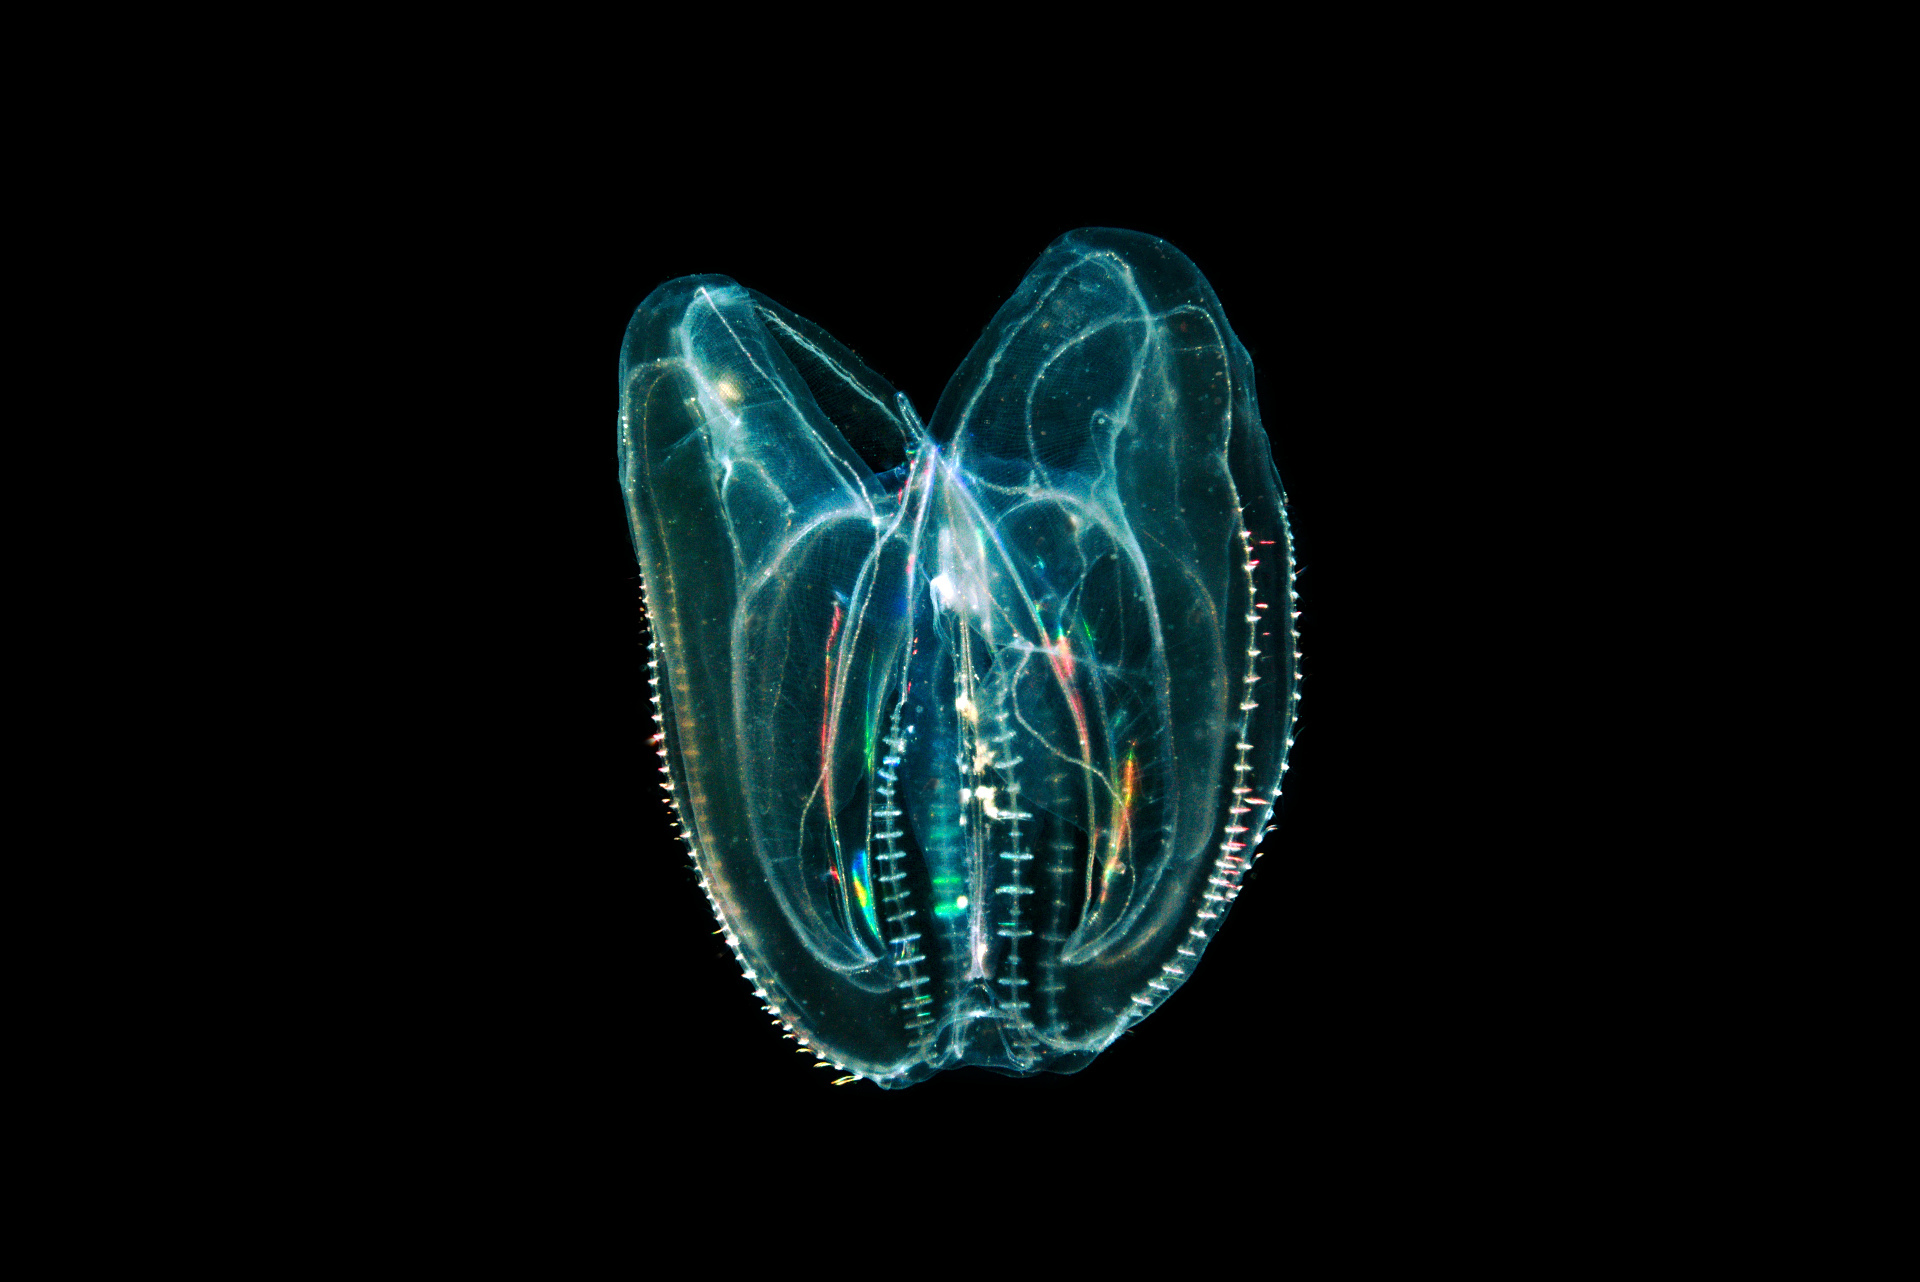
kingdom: Animalia
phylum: Ctenophora
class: Tentaculata
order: Lobata
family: Bolinopsidae
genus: Mnemiopsis
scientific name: Mnemiopsis leidyi
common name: American comb jelly
